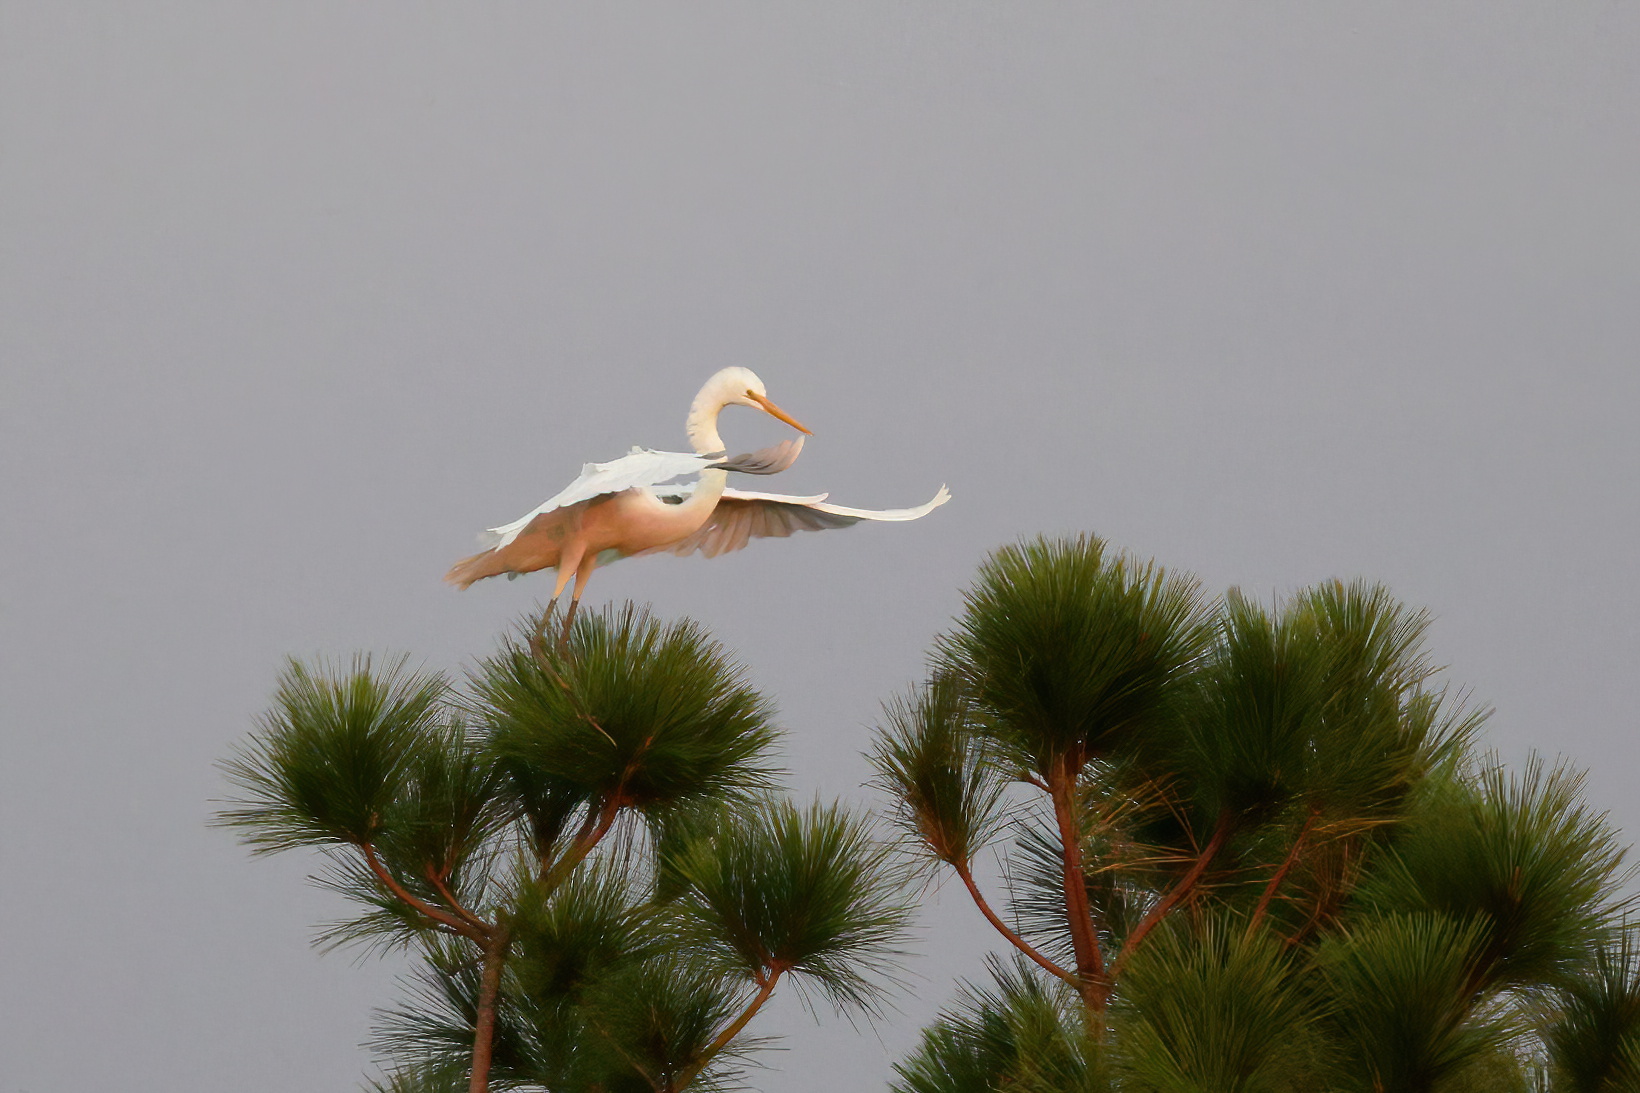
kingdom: Animalia
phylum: Chordata
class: Aves
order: Pelecaniformes
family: Ardeidae
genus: Ardea
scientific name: Ardea alba
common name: Great egret
